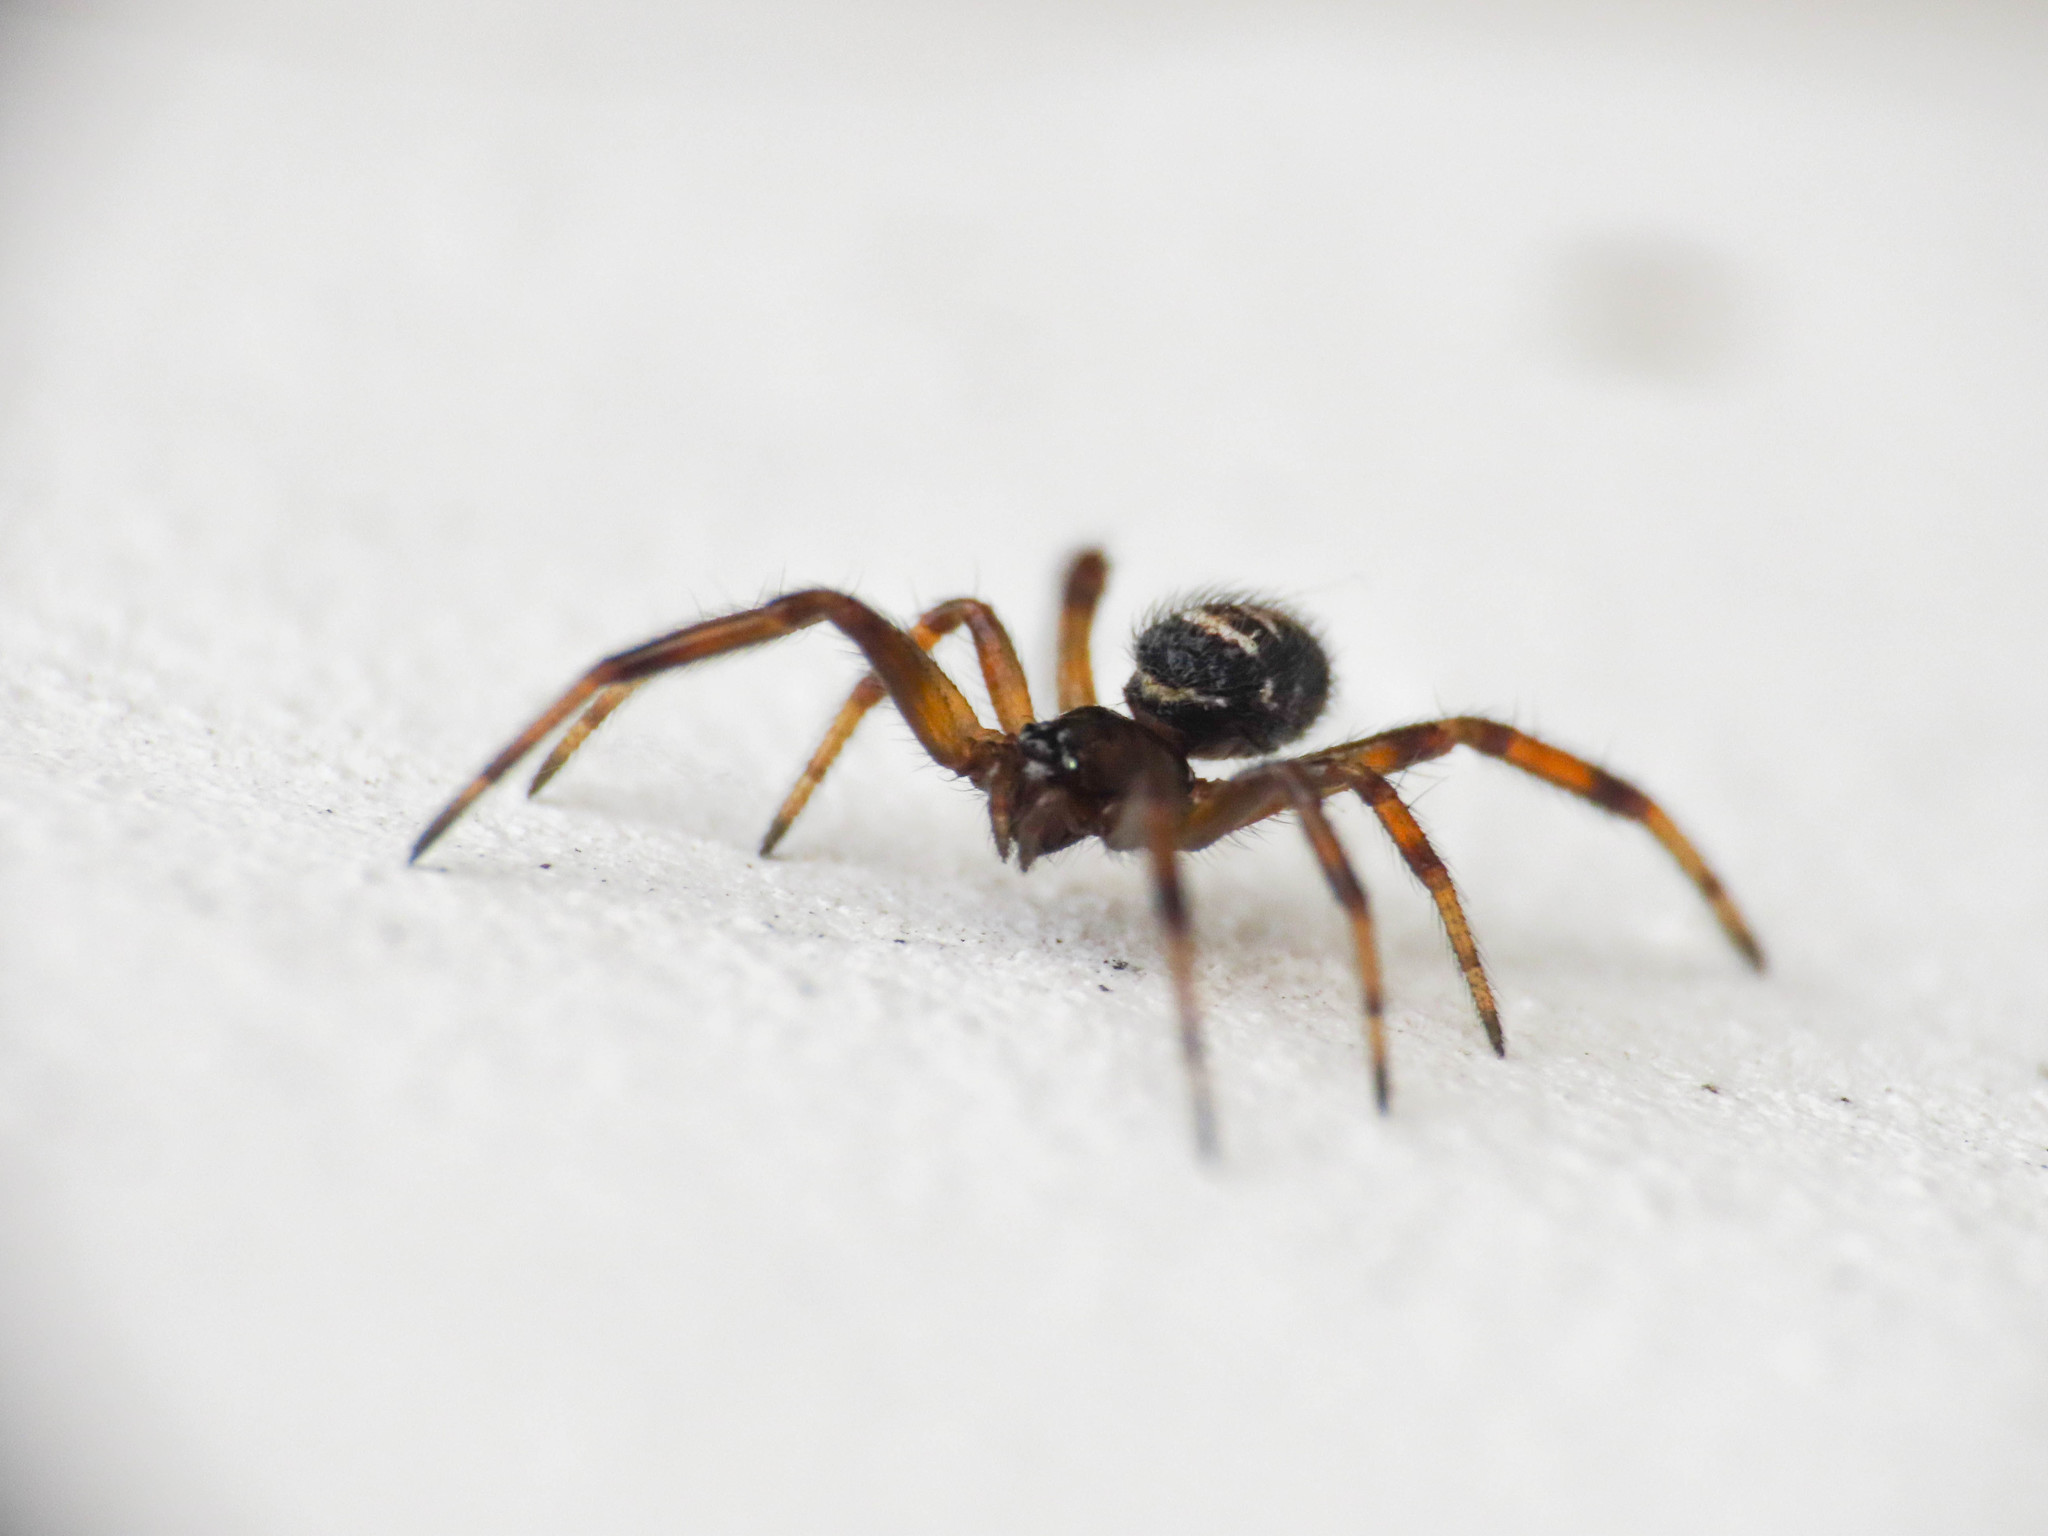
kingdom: Animalia
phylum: Arthropoda
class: Arachnida
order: Araneae
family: Theridiidae
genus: Steatoda
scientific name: Steatoda paykulliana
